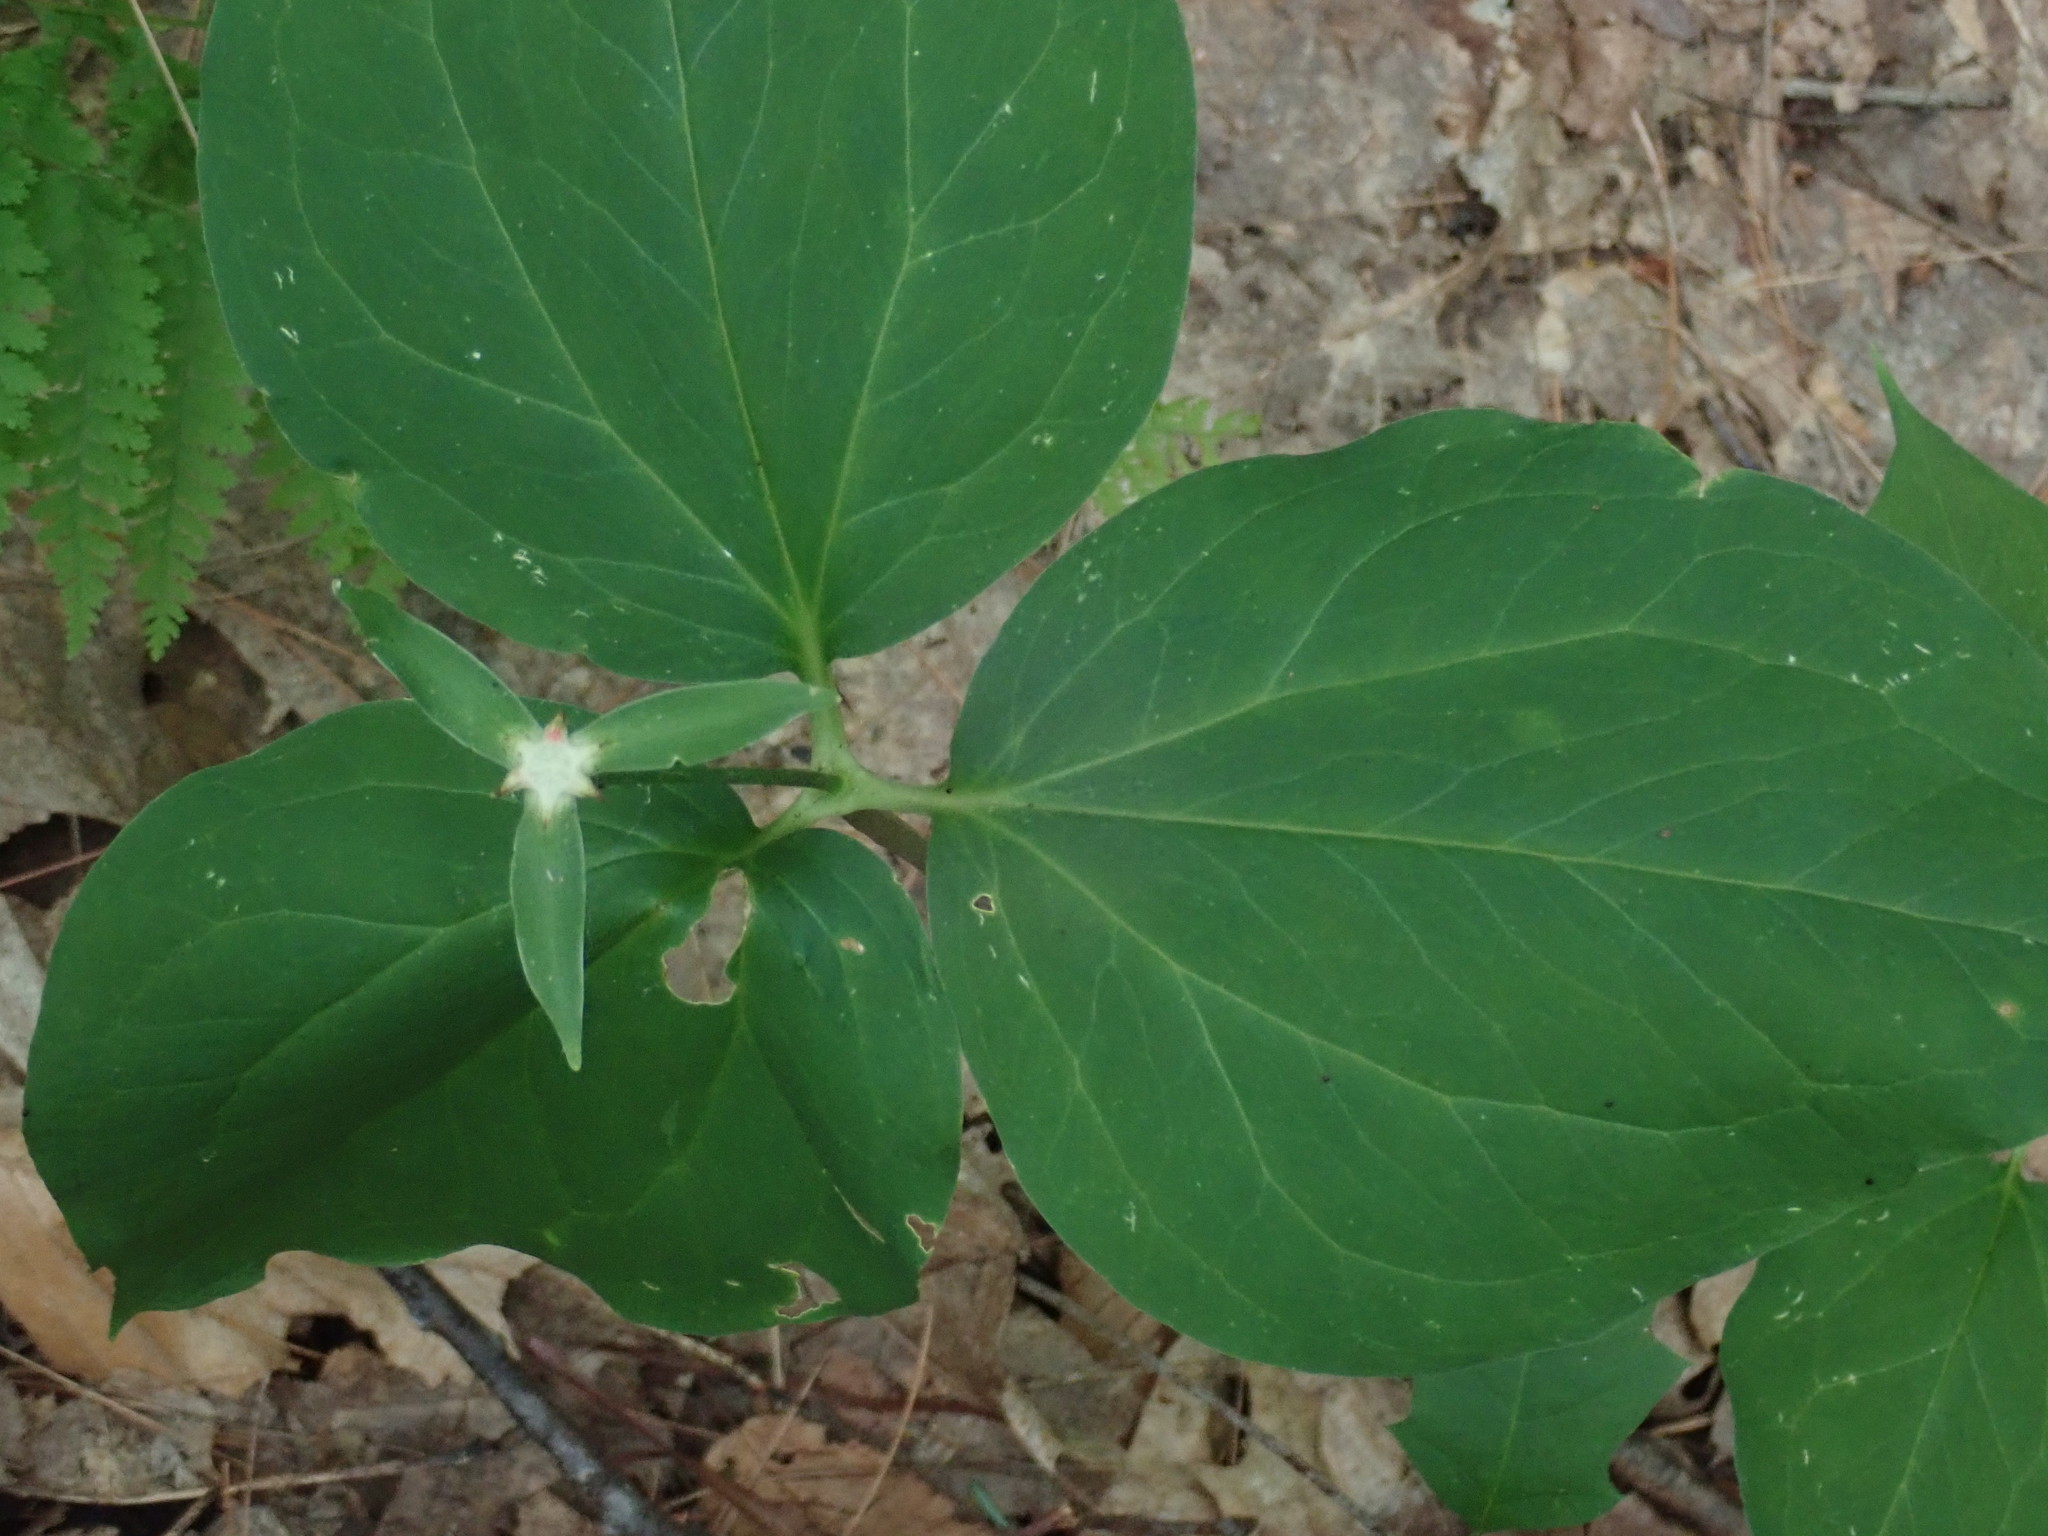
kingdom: Plantae
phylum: Tracheophyta
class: Liliopsida
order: Liliales
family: Melanthiaceae
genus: Trillium
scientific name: Trillium undulatum
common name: Paint trillium
